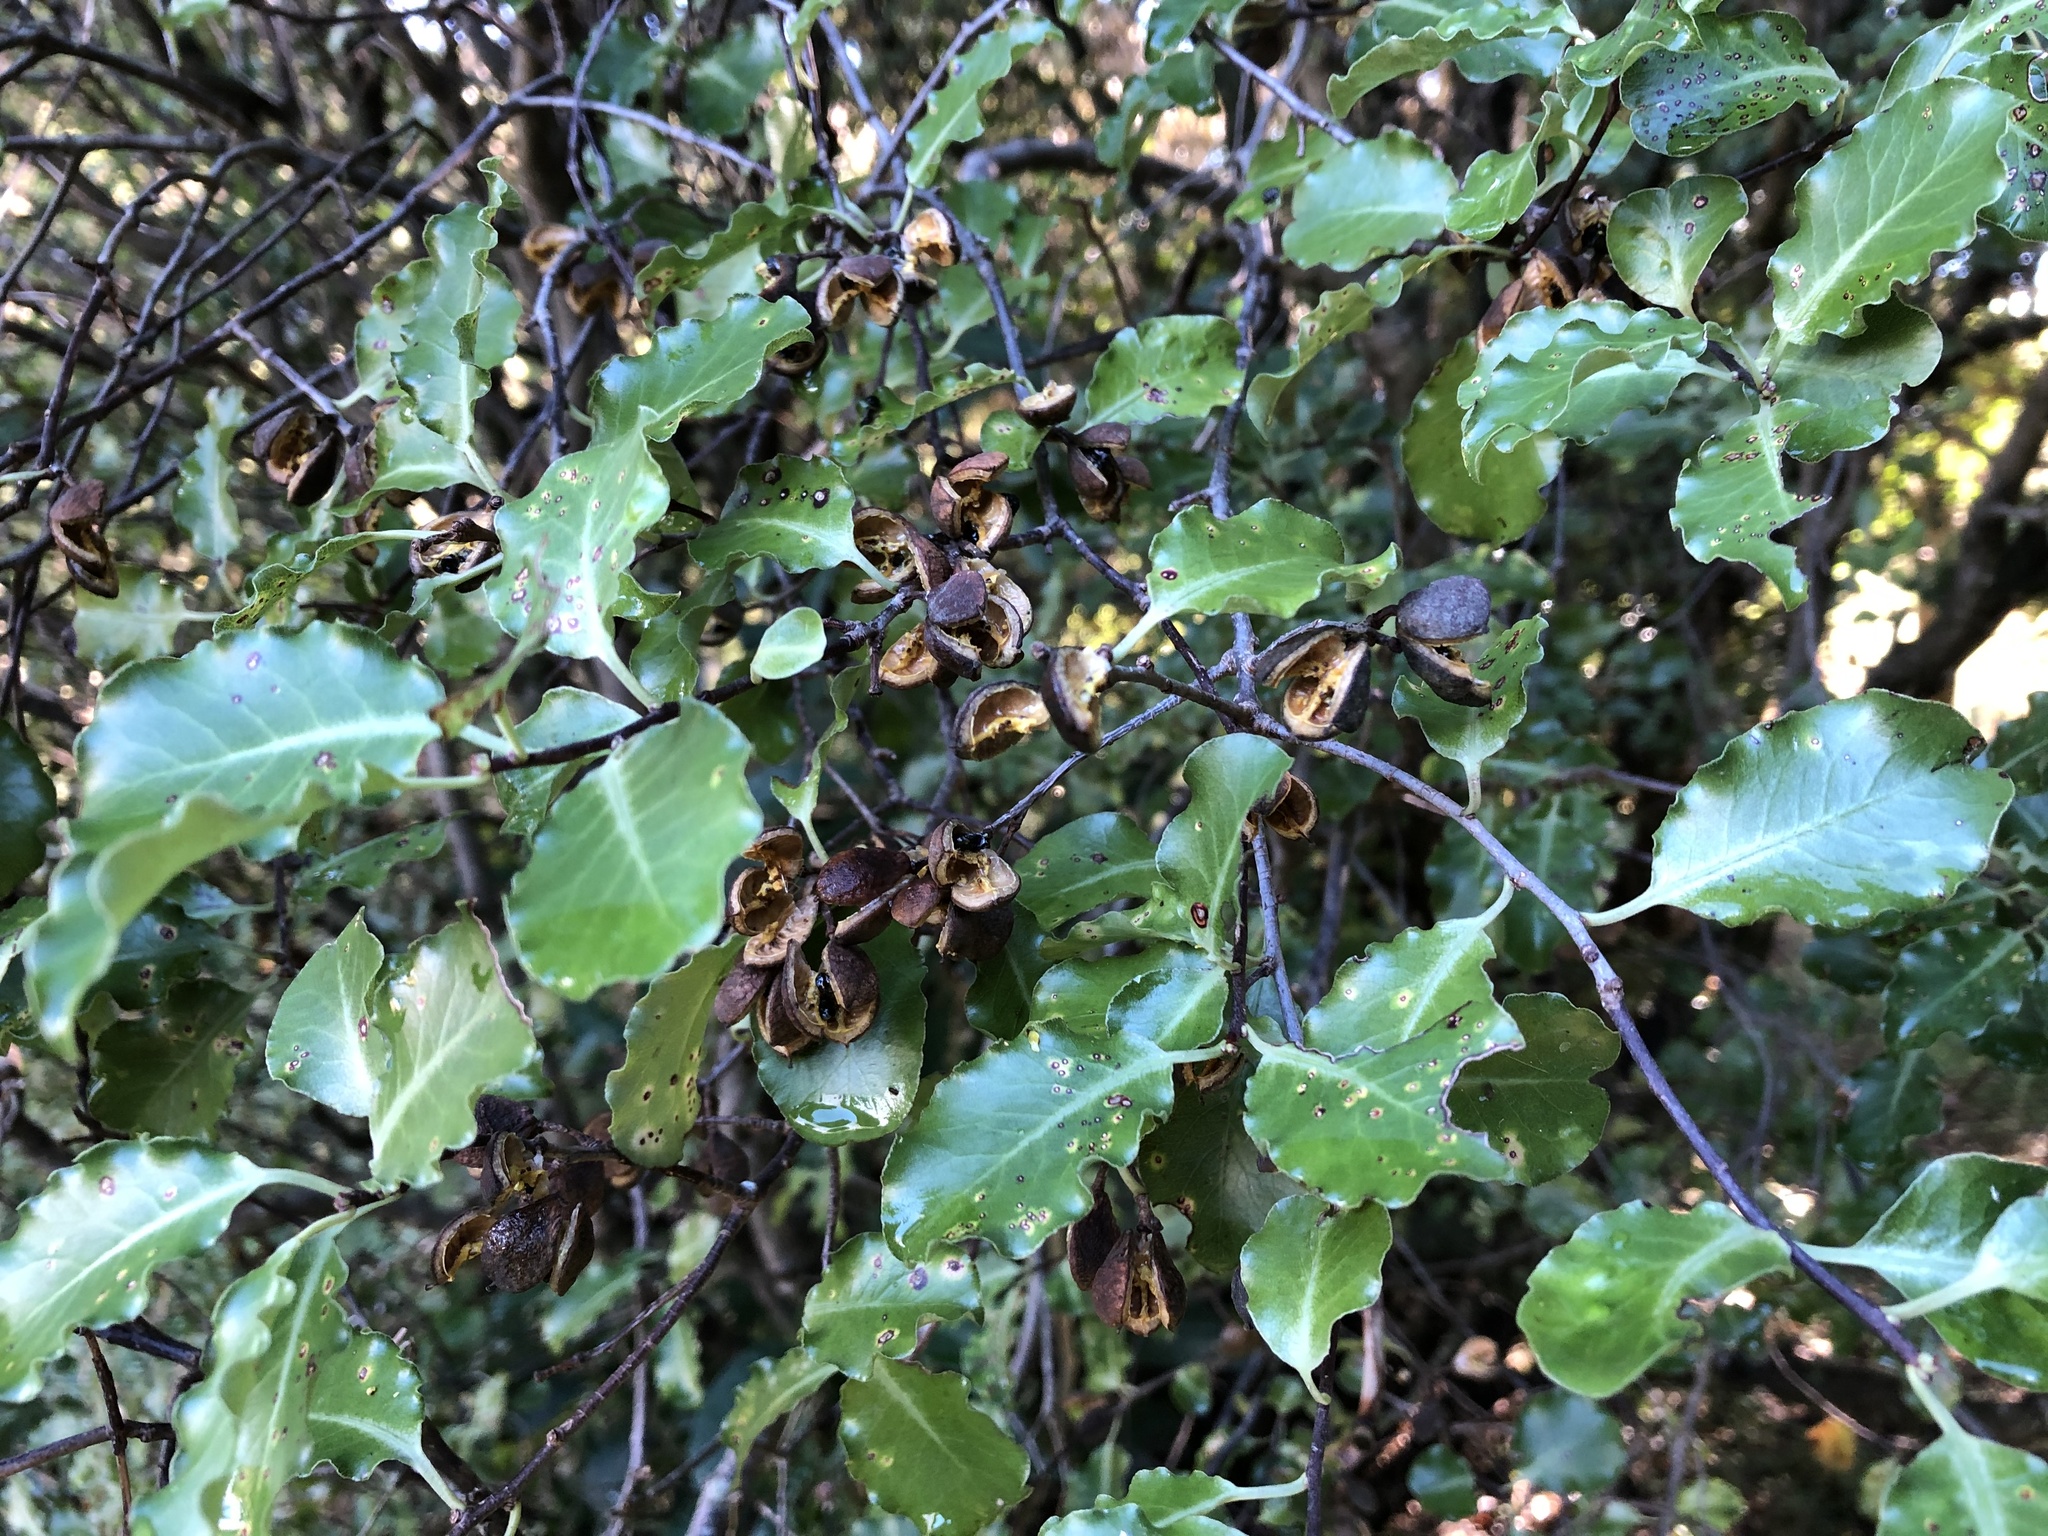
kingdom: Plantae
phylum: Tracheophyta
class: Magnoliopsida
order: Apiales
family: Pittosporaceae
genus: Pittosporum
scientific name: Pittosporum tenuifolium
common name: Kohuhu
